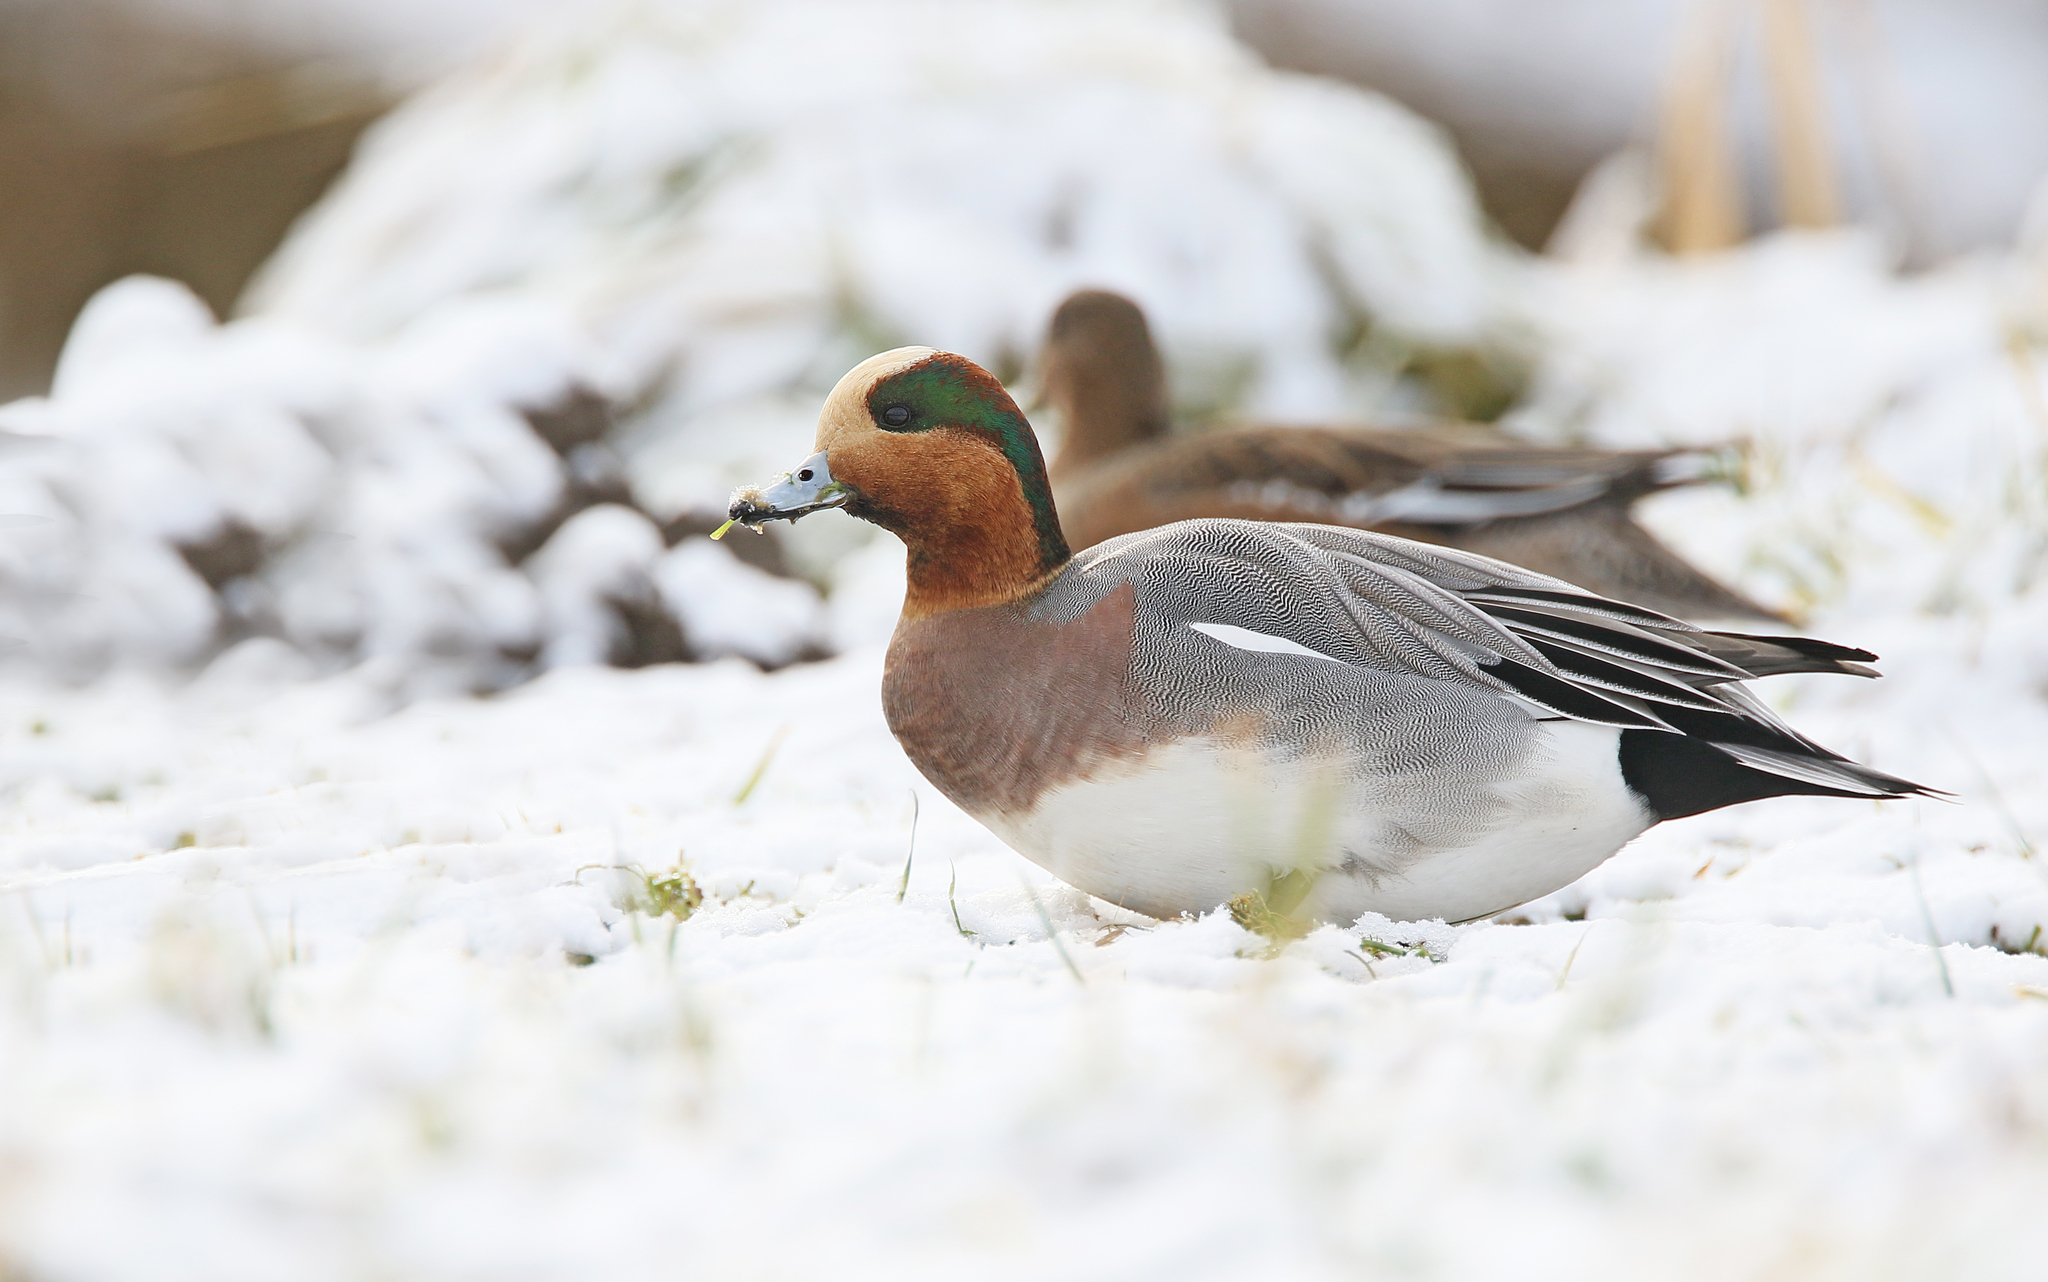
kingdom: Animalia
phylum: Chordata
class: Aves
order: Anseriformes
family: Anatidae
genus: Mareca
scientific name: Mareca penelope
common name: Eurasian wigeon
